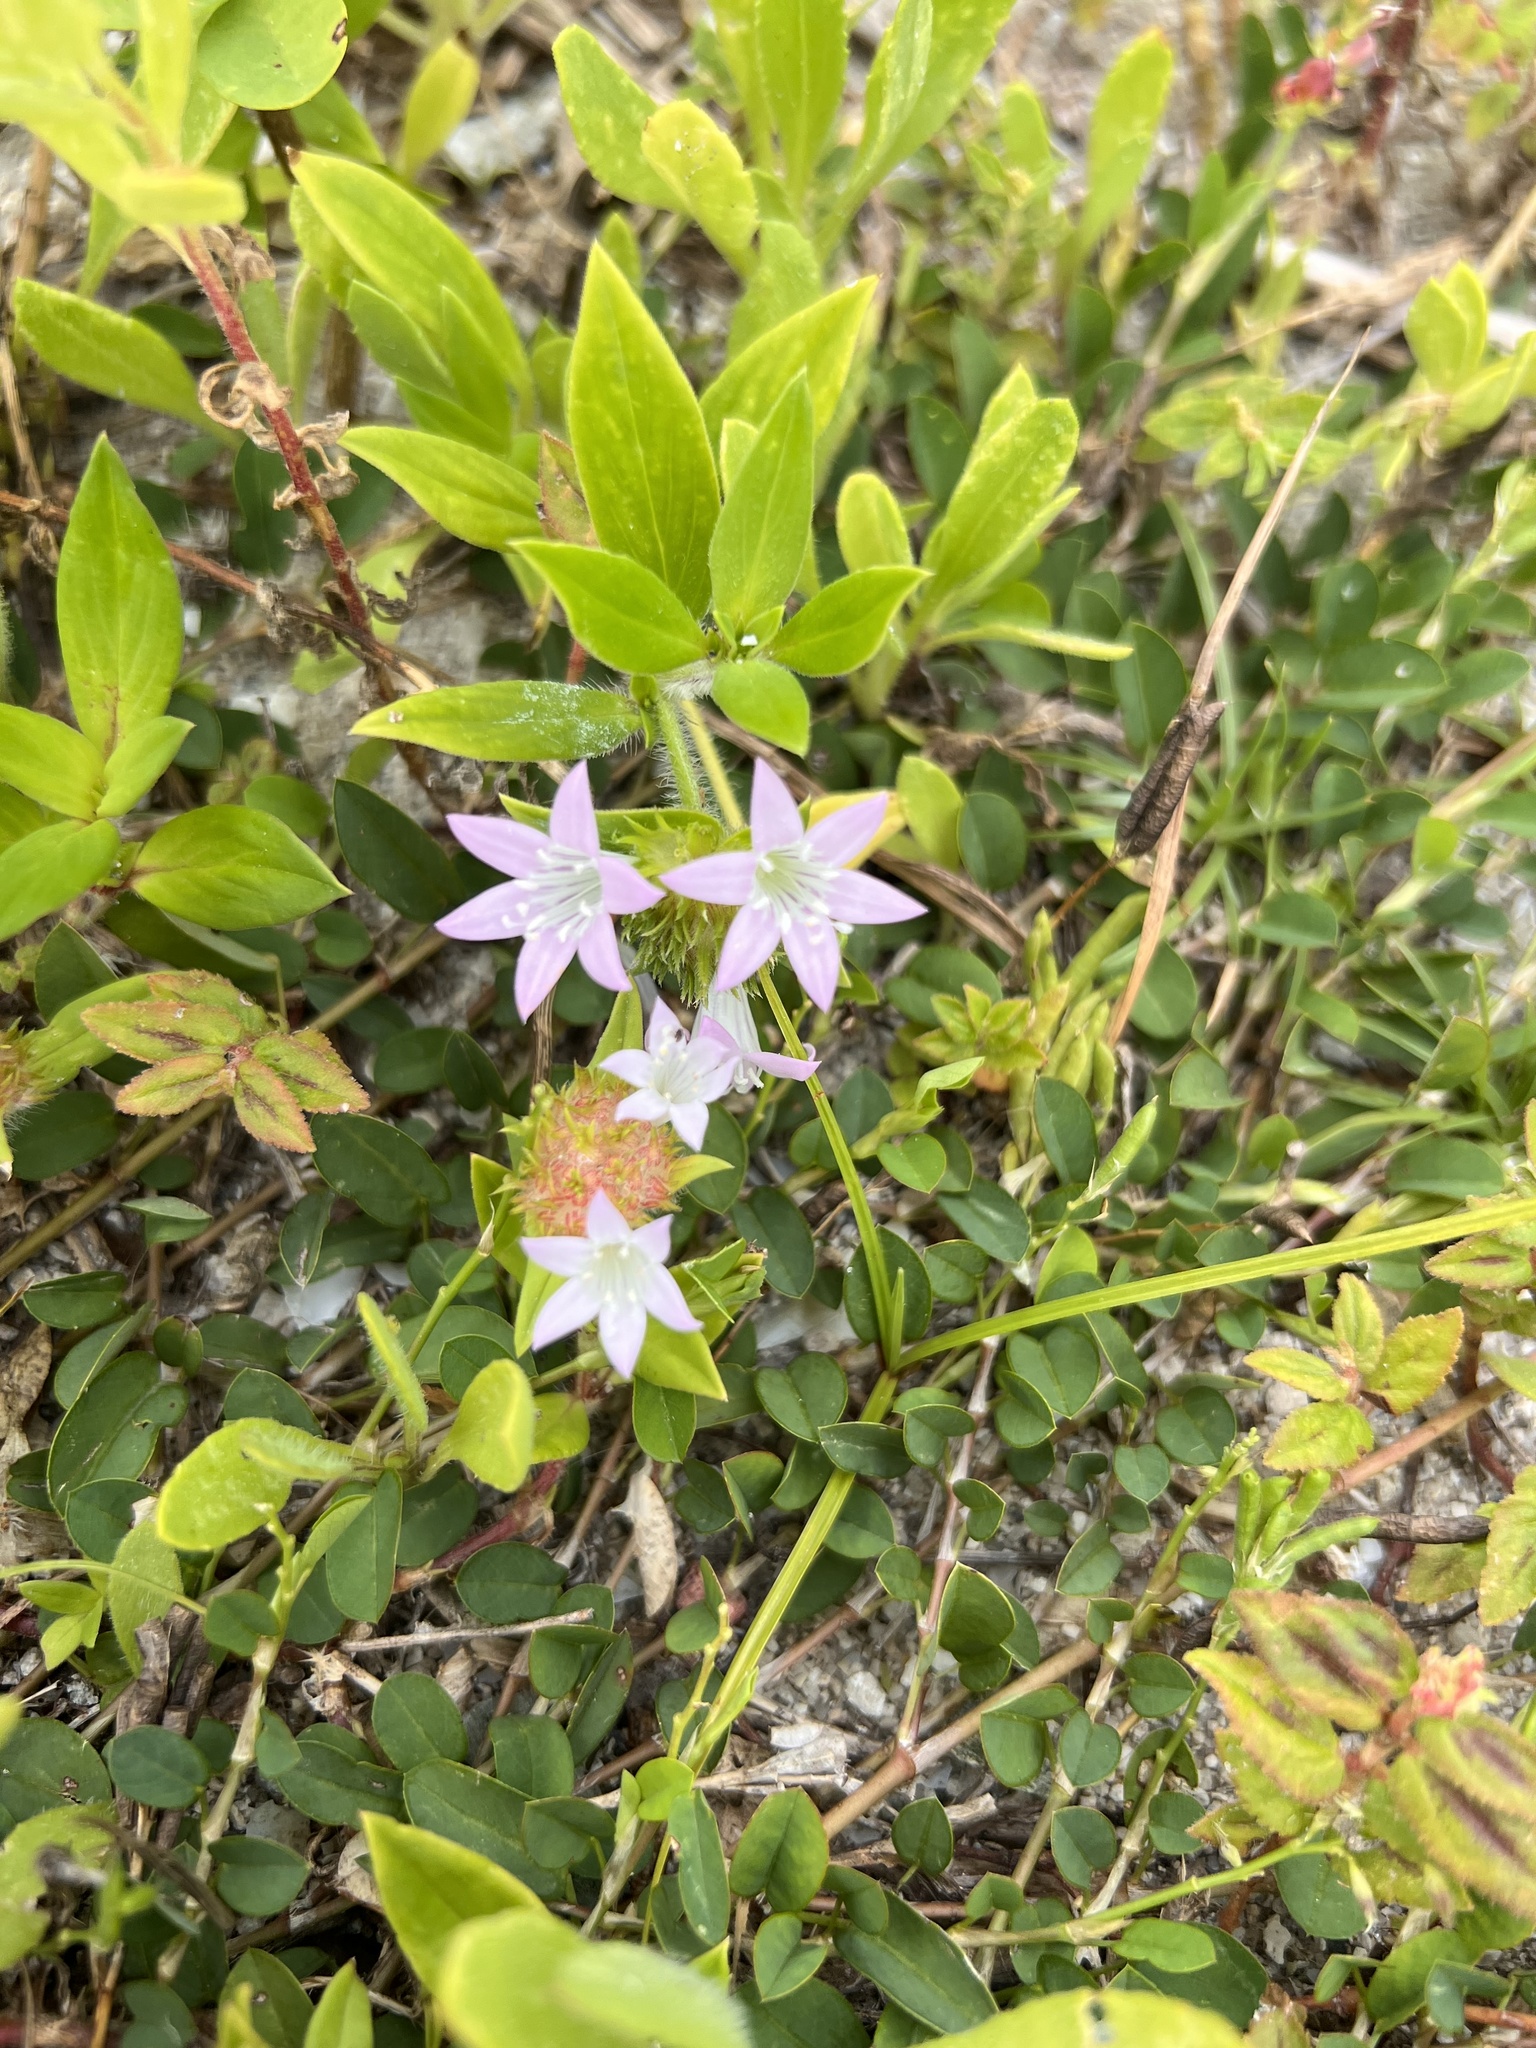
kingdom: Plantae
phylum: Tracheophyta
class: Magnoliopsida
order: Gentianales
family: Rubiaceae
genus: Richardia
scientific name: Richardia grandiflora
